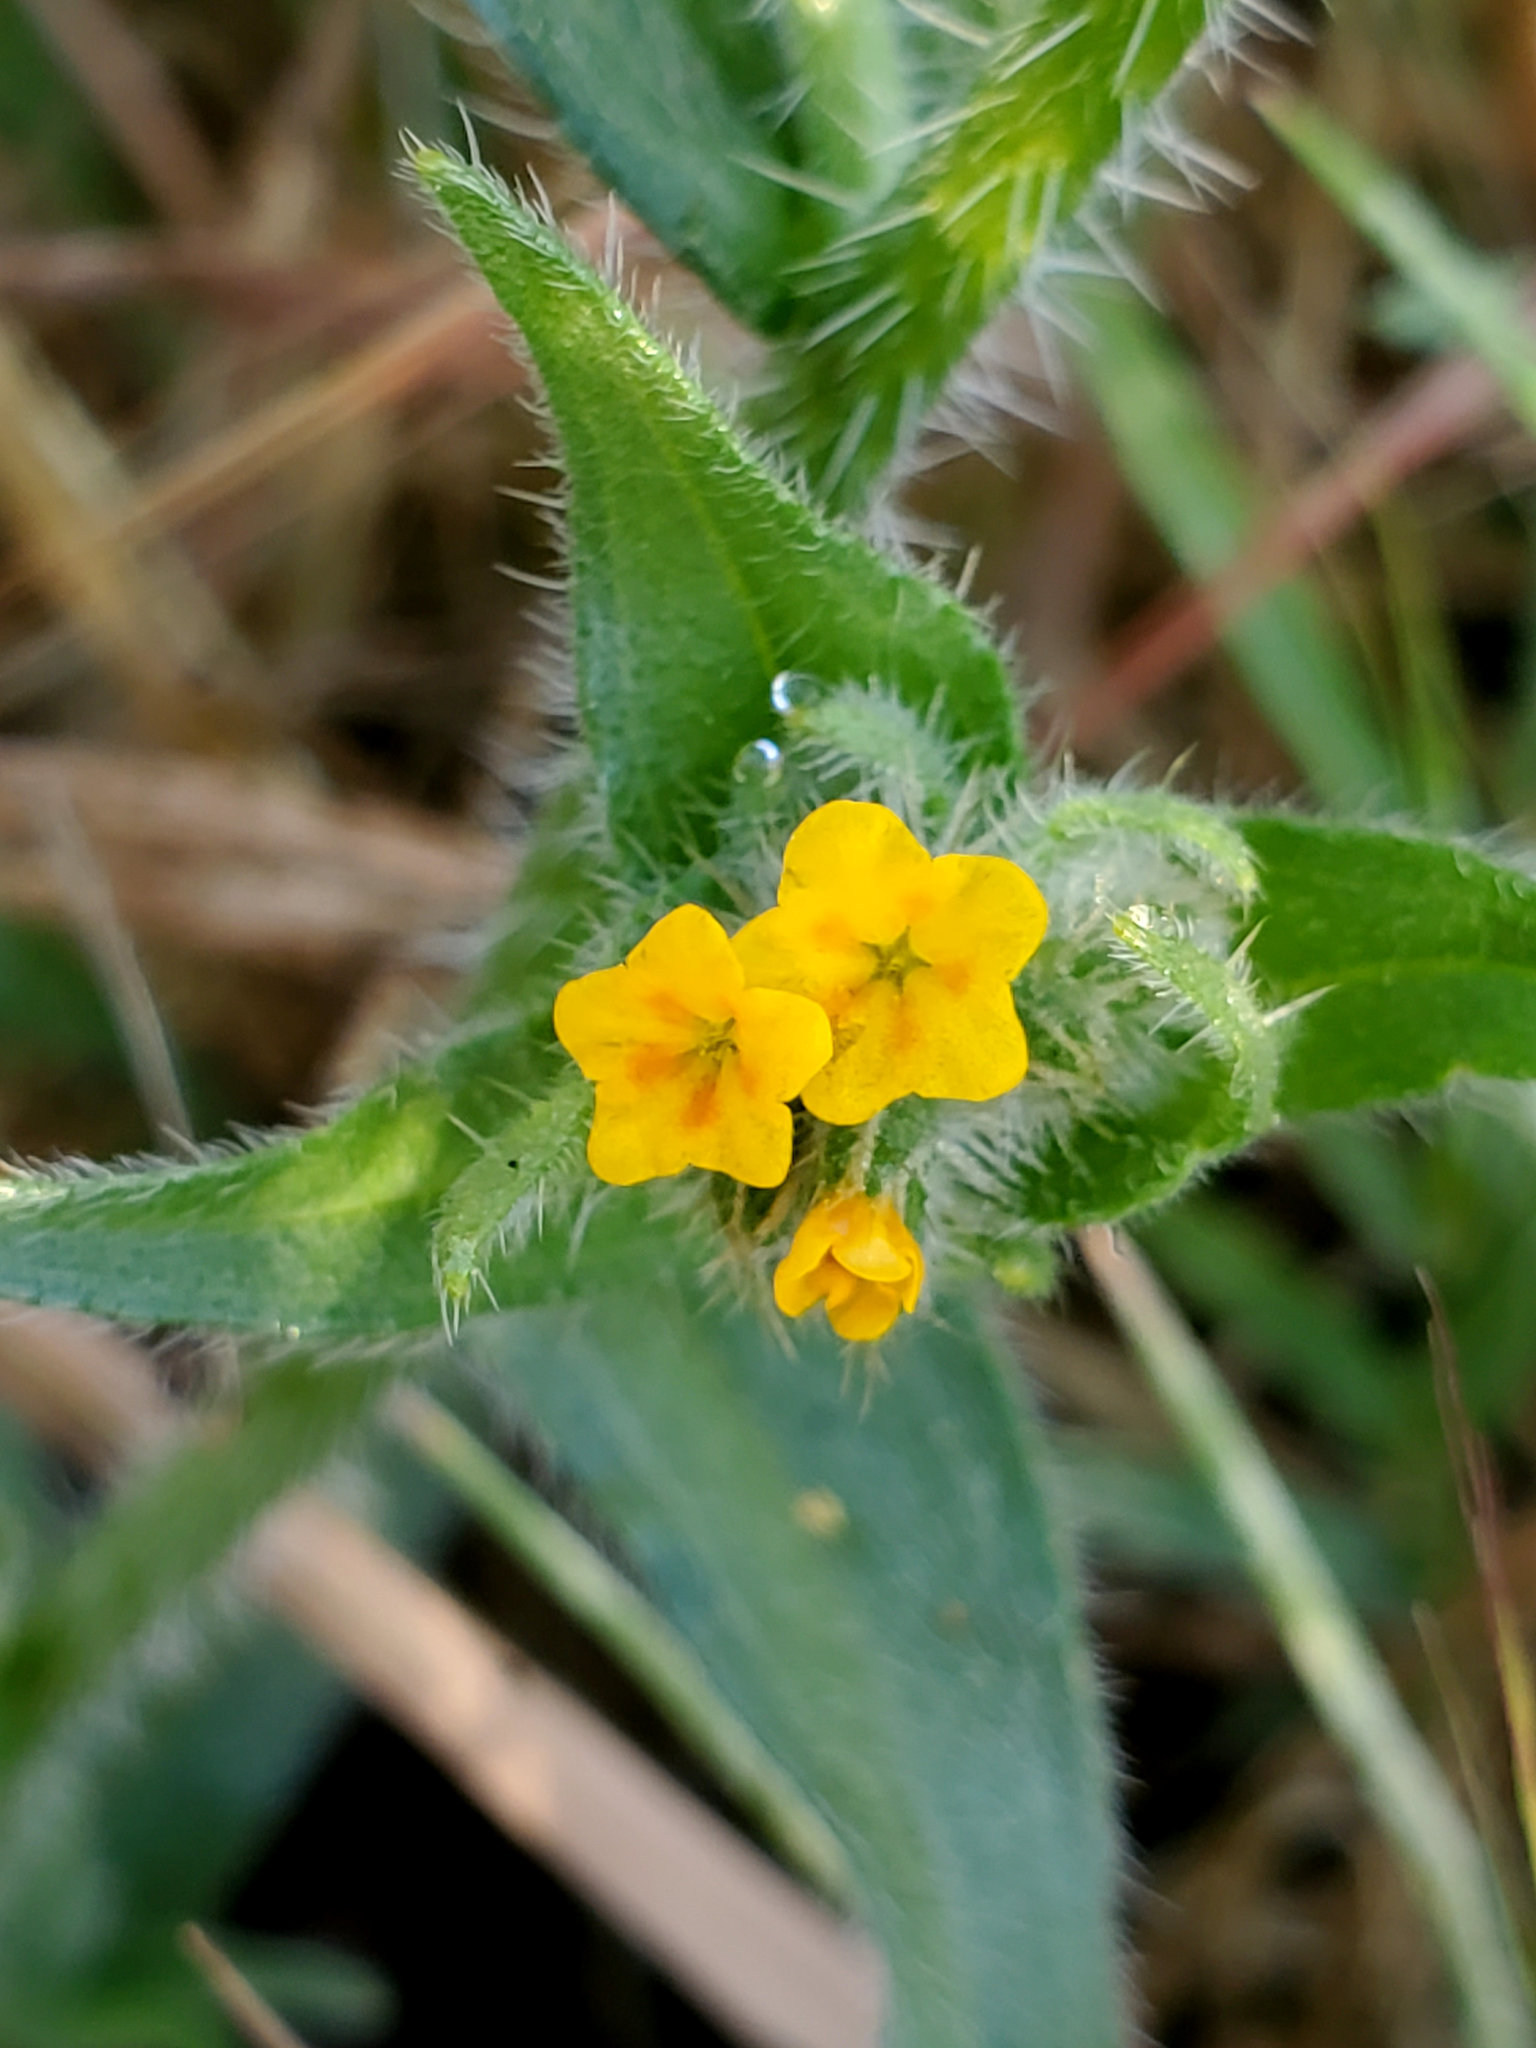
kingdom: Plantae
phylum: Tracheophyta
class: Magnoliopsida
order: Boraginales
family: Boraginaceae
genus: Amsinckia
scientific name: Amsinckia tessellata
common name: Tessellate fiddleneck
